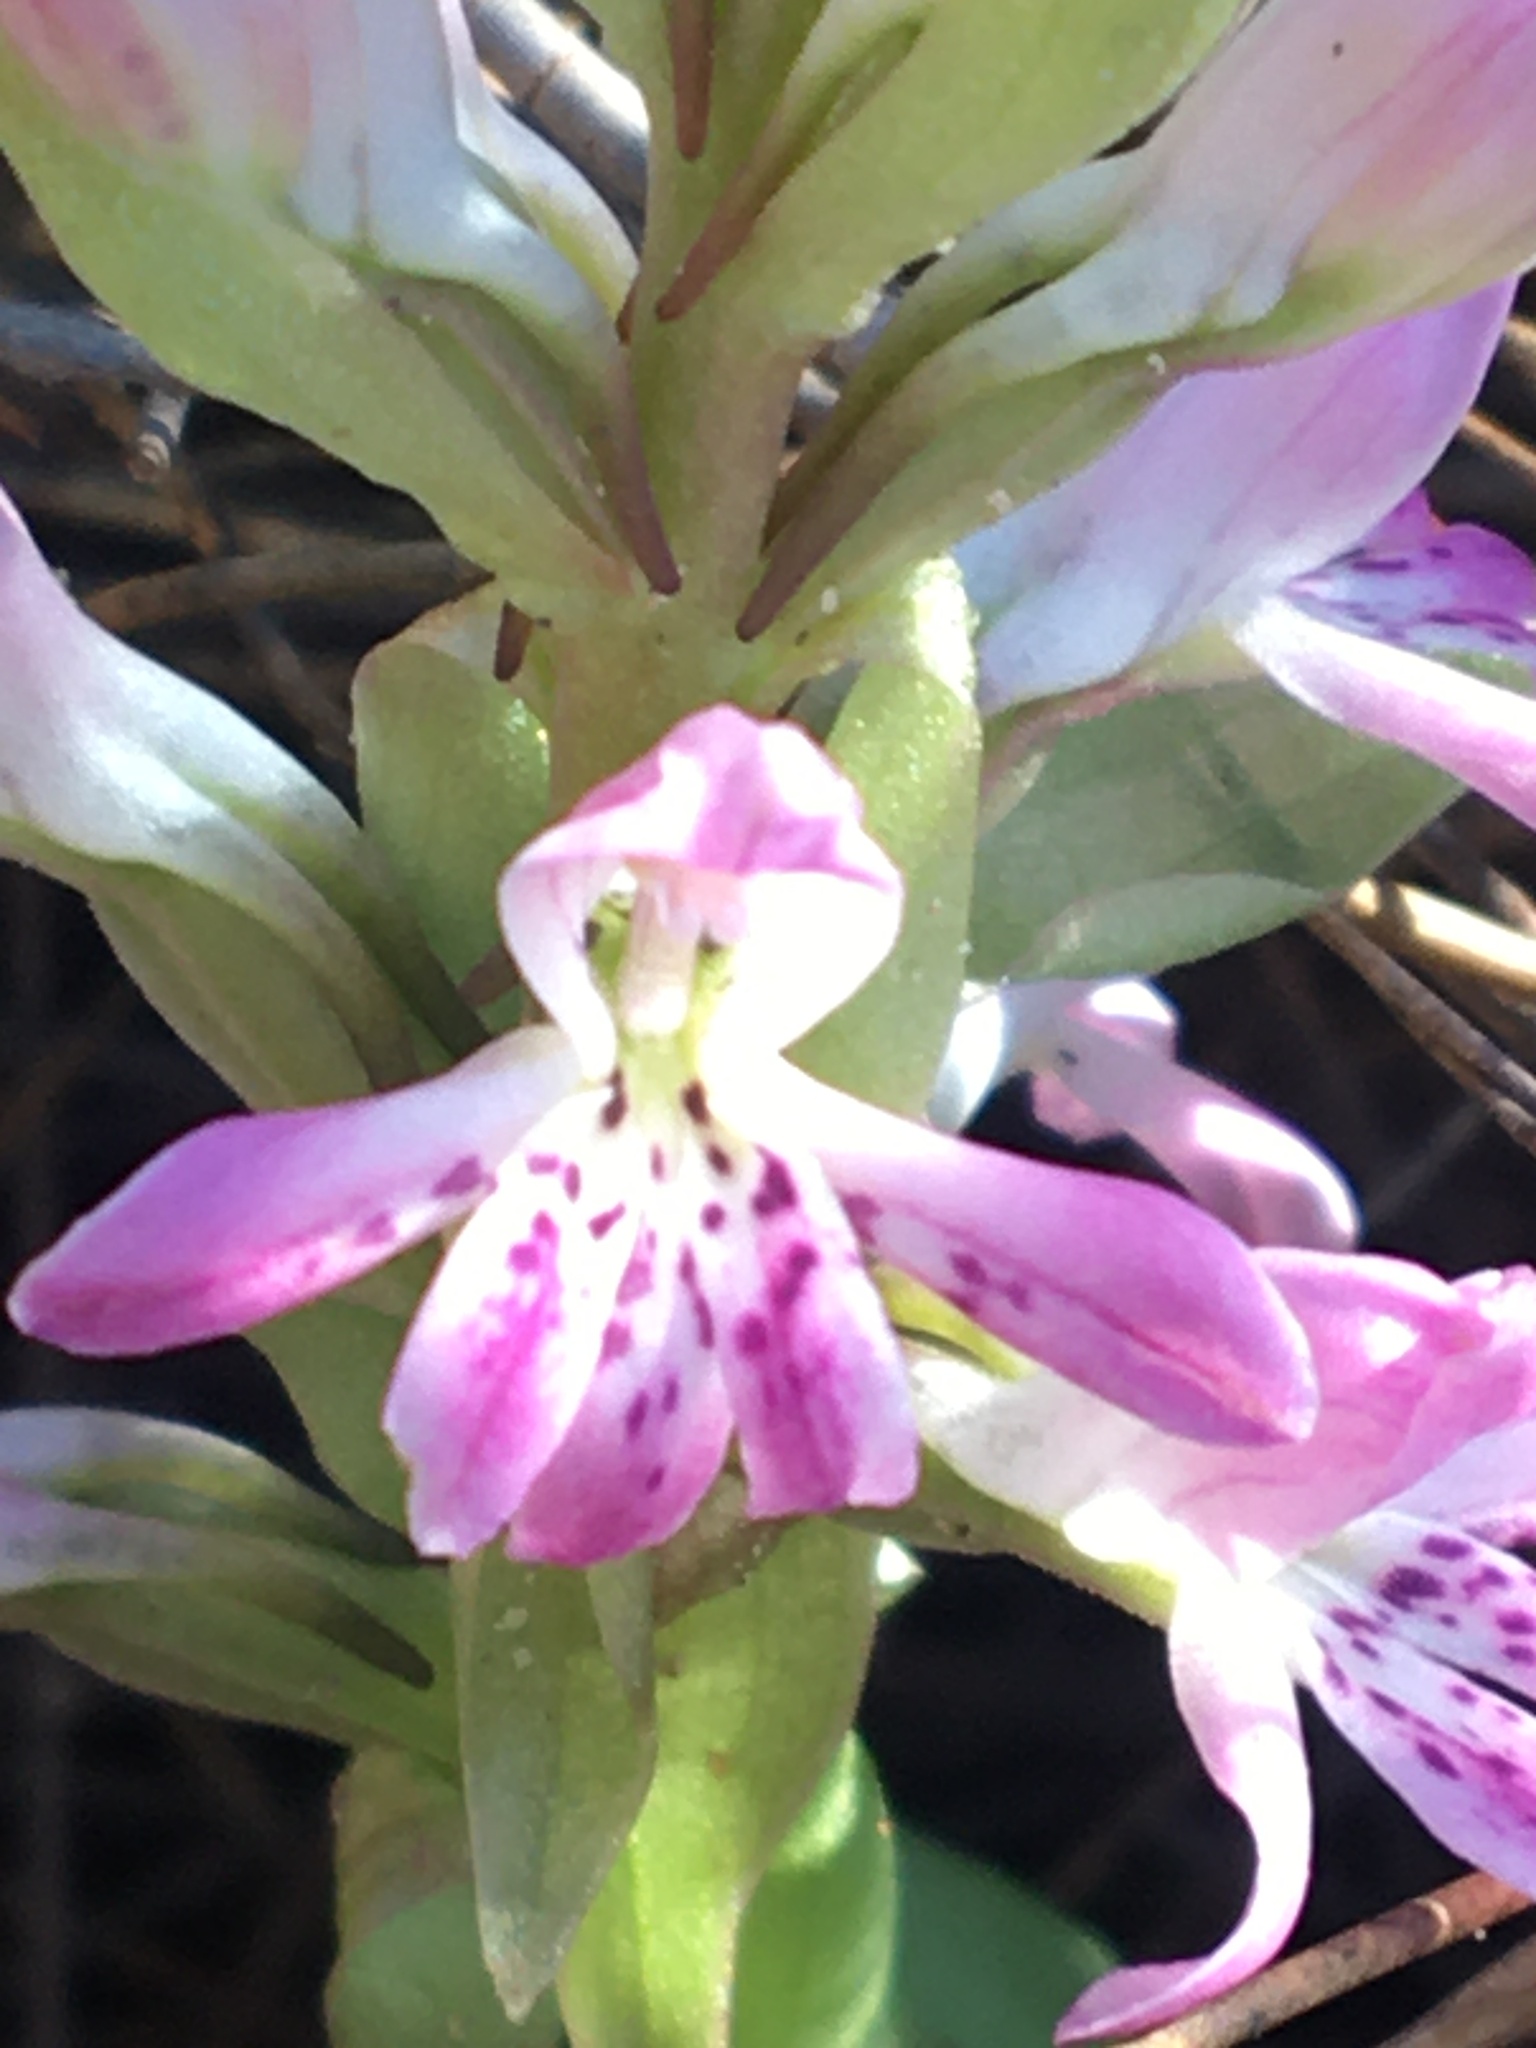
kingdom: Plantae
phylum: Tracheophyta
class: Liliopsida
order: Asparagales
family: Orchidaceae
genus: Satyrium
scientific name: Satyrium erectum
